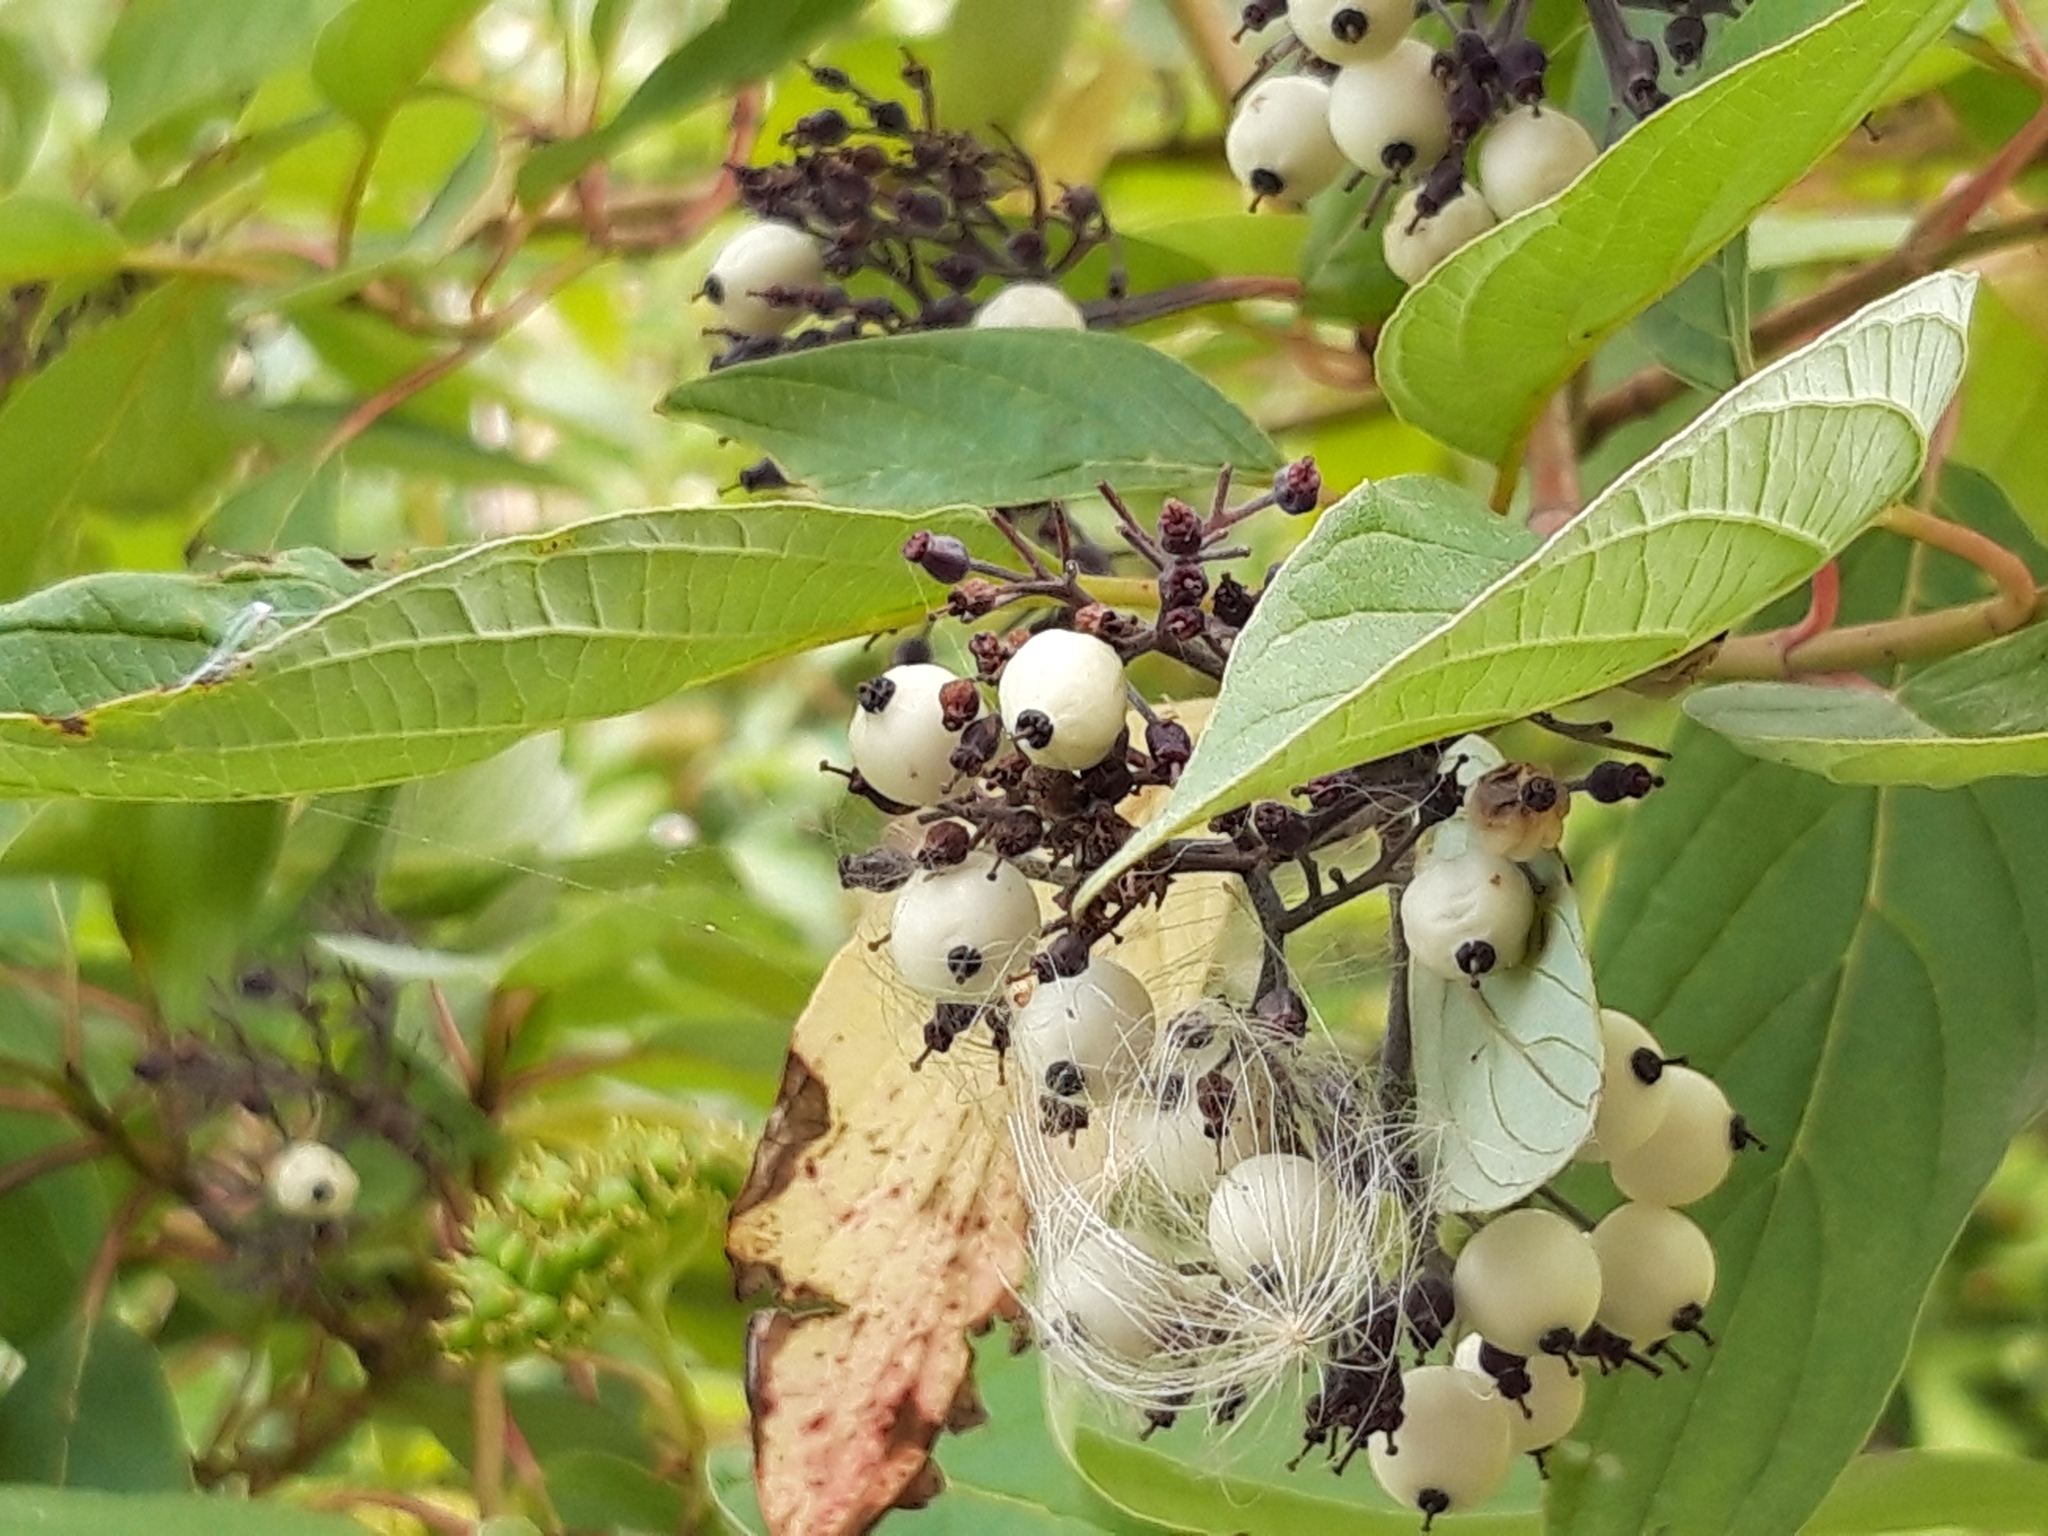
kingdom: Plantae
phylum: Tracheophyta
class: Magnoliopsida
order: Cornales
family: Cornaceae
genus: Cornus
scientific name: Cornus sericea
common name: Red-osier dogwood
